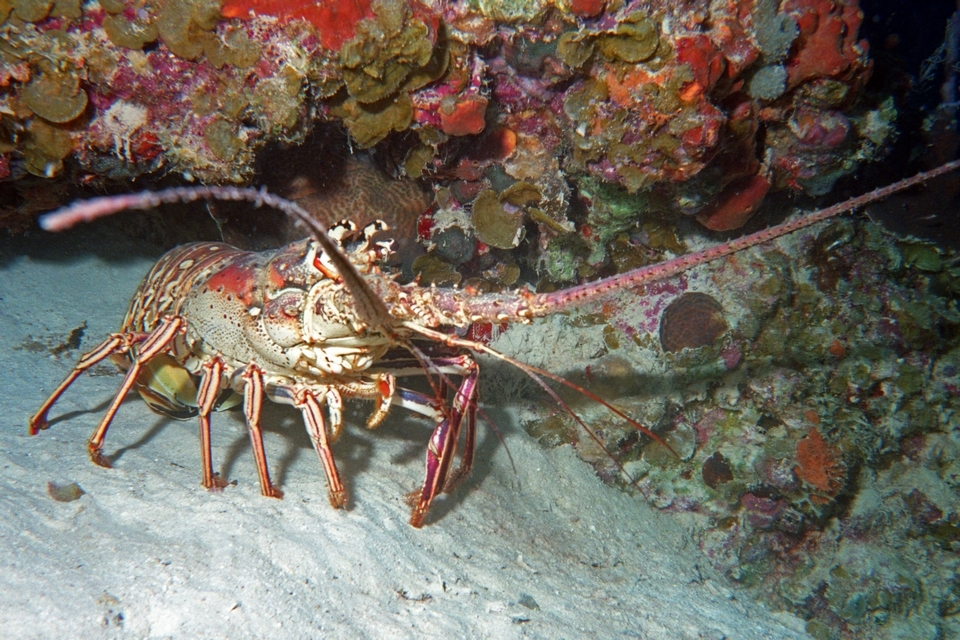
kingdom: Animalia
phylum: Arthropoda
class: Malacostraca
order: Decapoda
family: Palinuridae
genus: Panulirus
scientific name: Panulirus argus
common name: Caribbean spiny lobster
